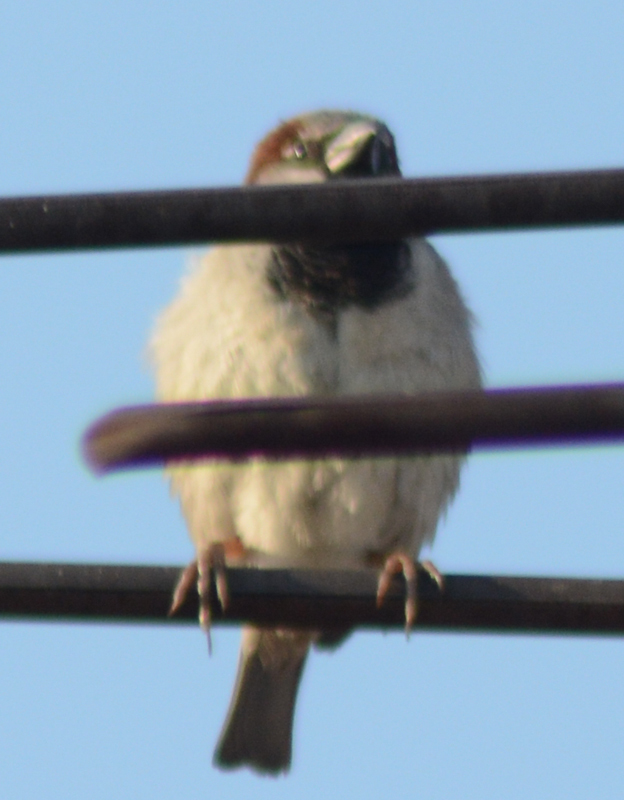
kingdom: Animalia
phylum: Chordata
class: Aves
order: Passeriformes
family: Passeridae
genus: Passer
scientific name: Passer domesticus
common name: House sparrow
